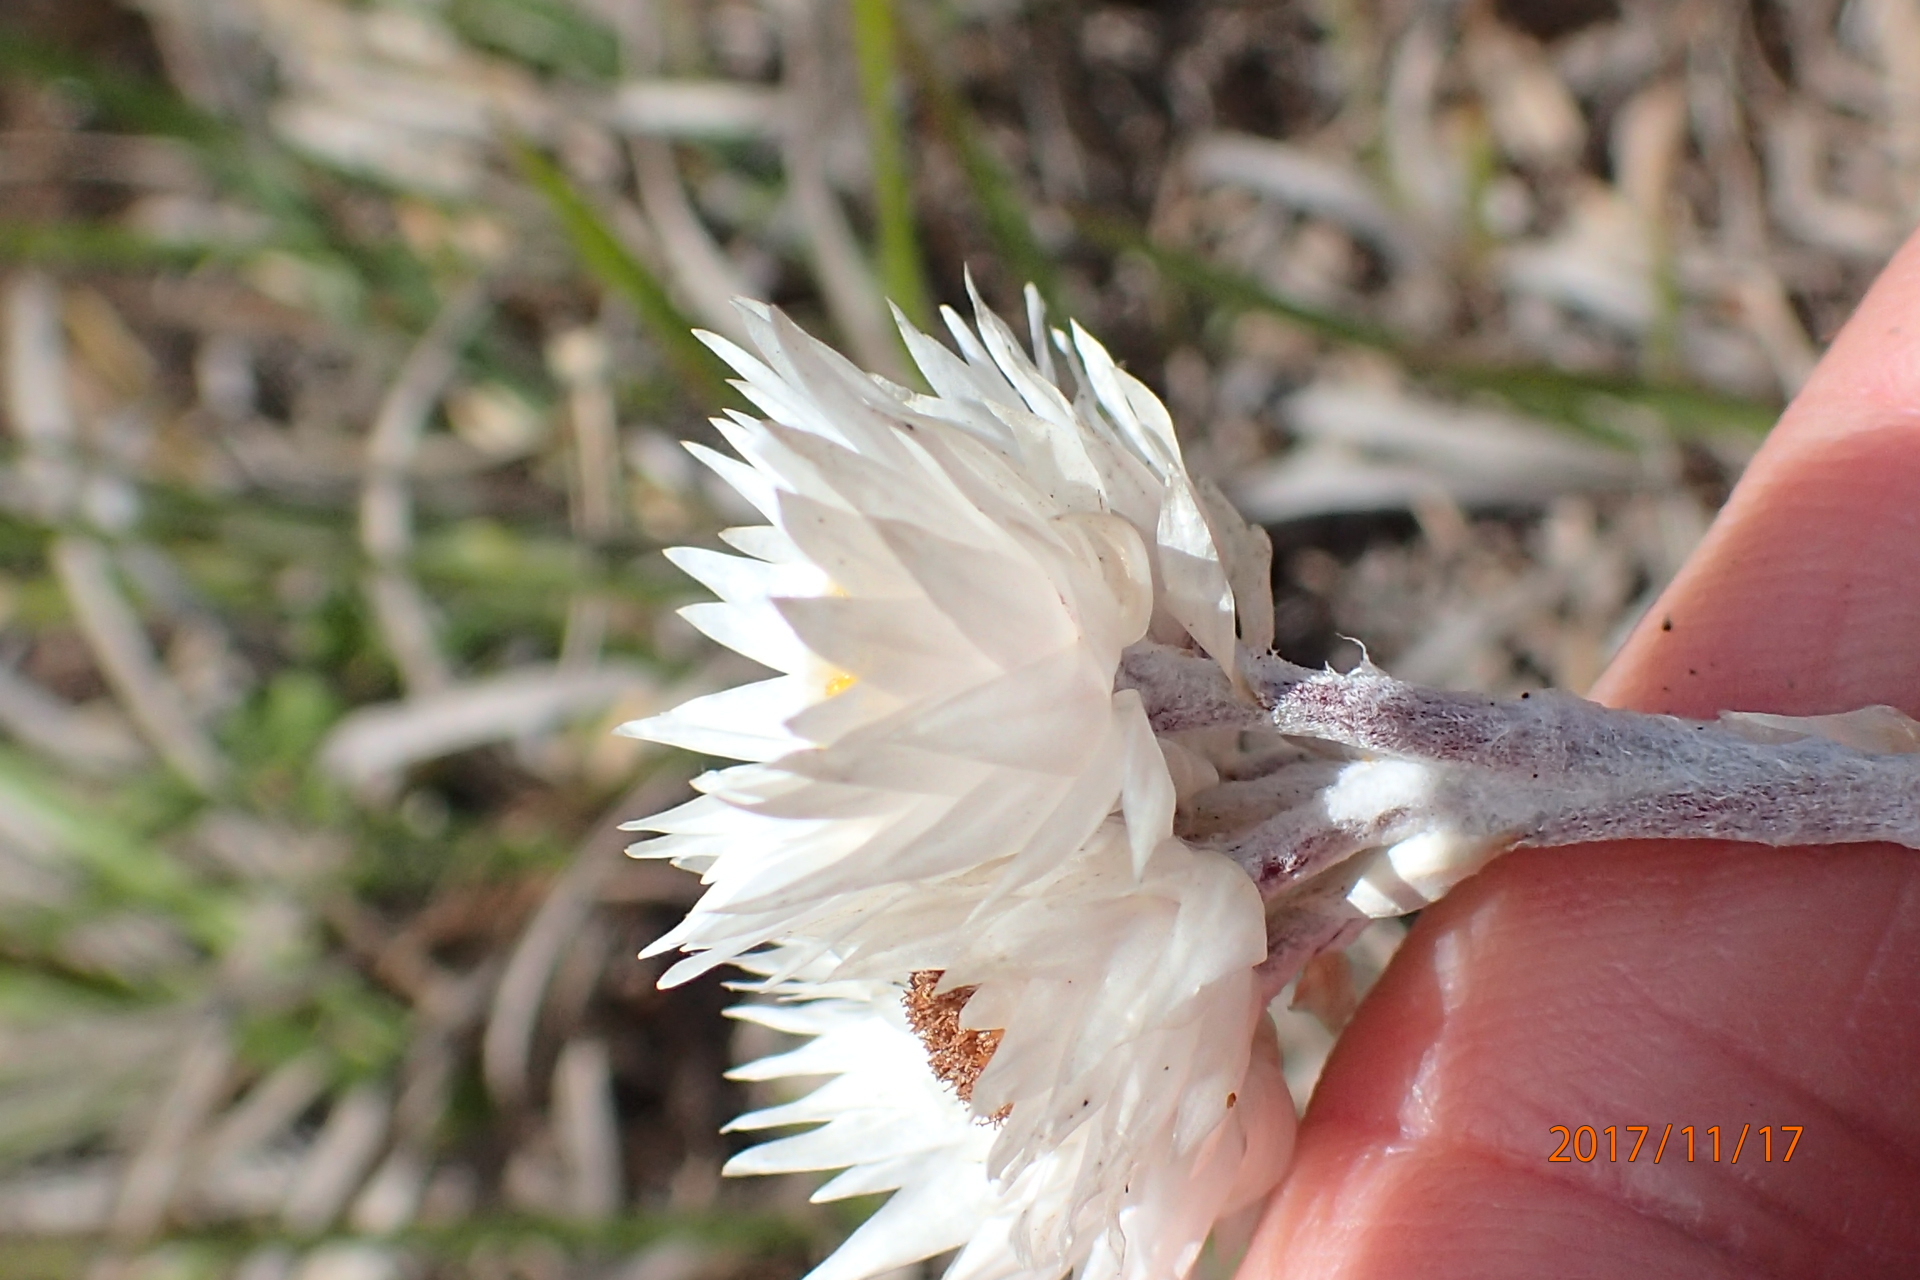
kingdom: Plantae
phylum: Tracheophyta
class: Magnoliopsida
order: Asterales
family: Asteraceae
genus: Helichrysum
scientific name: Helichrysum grandibracteatum
